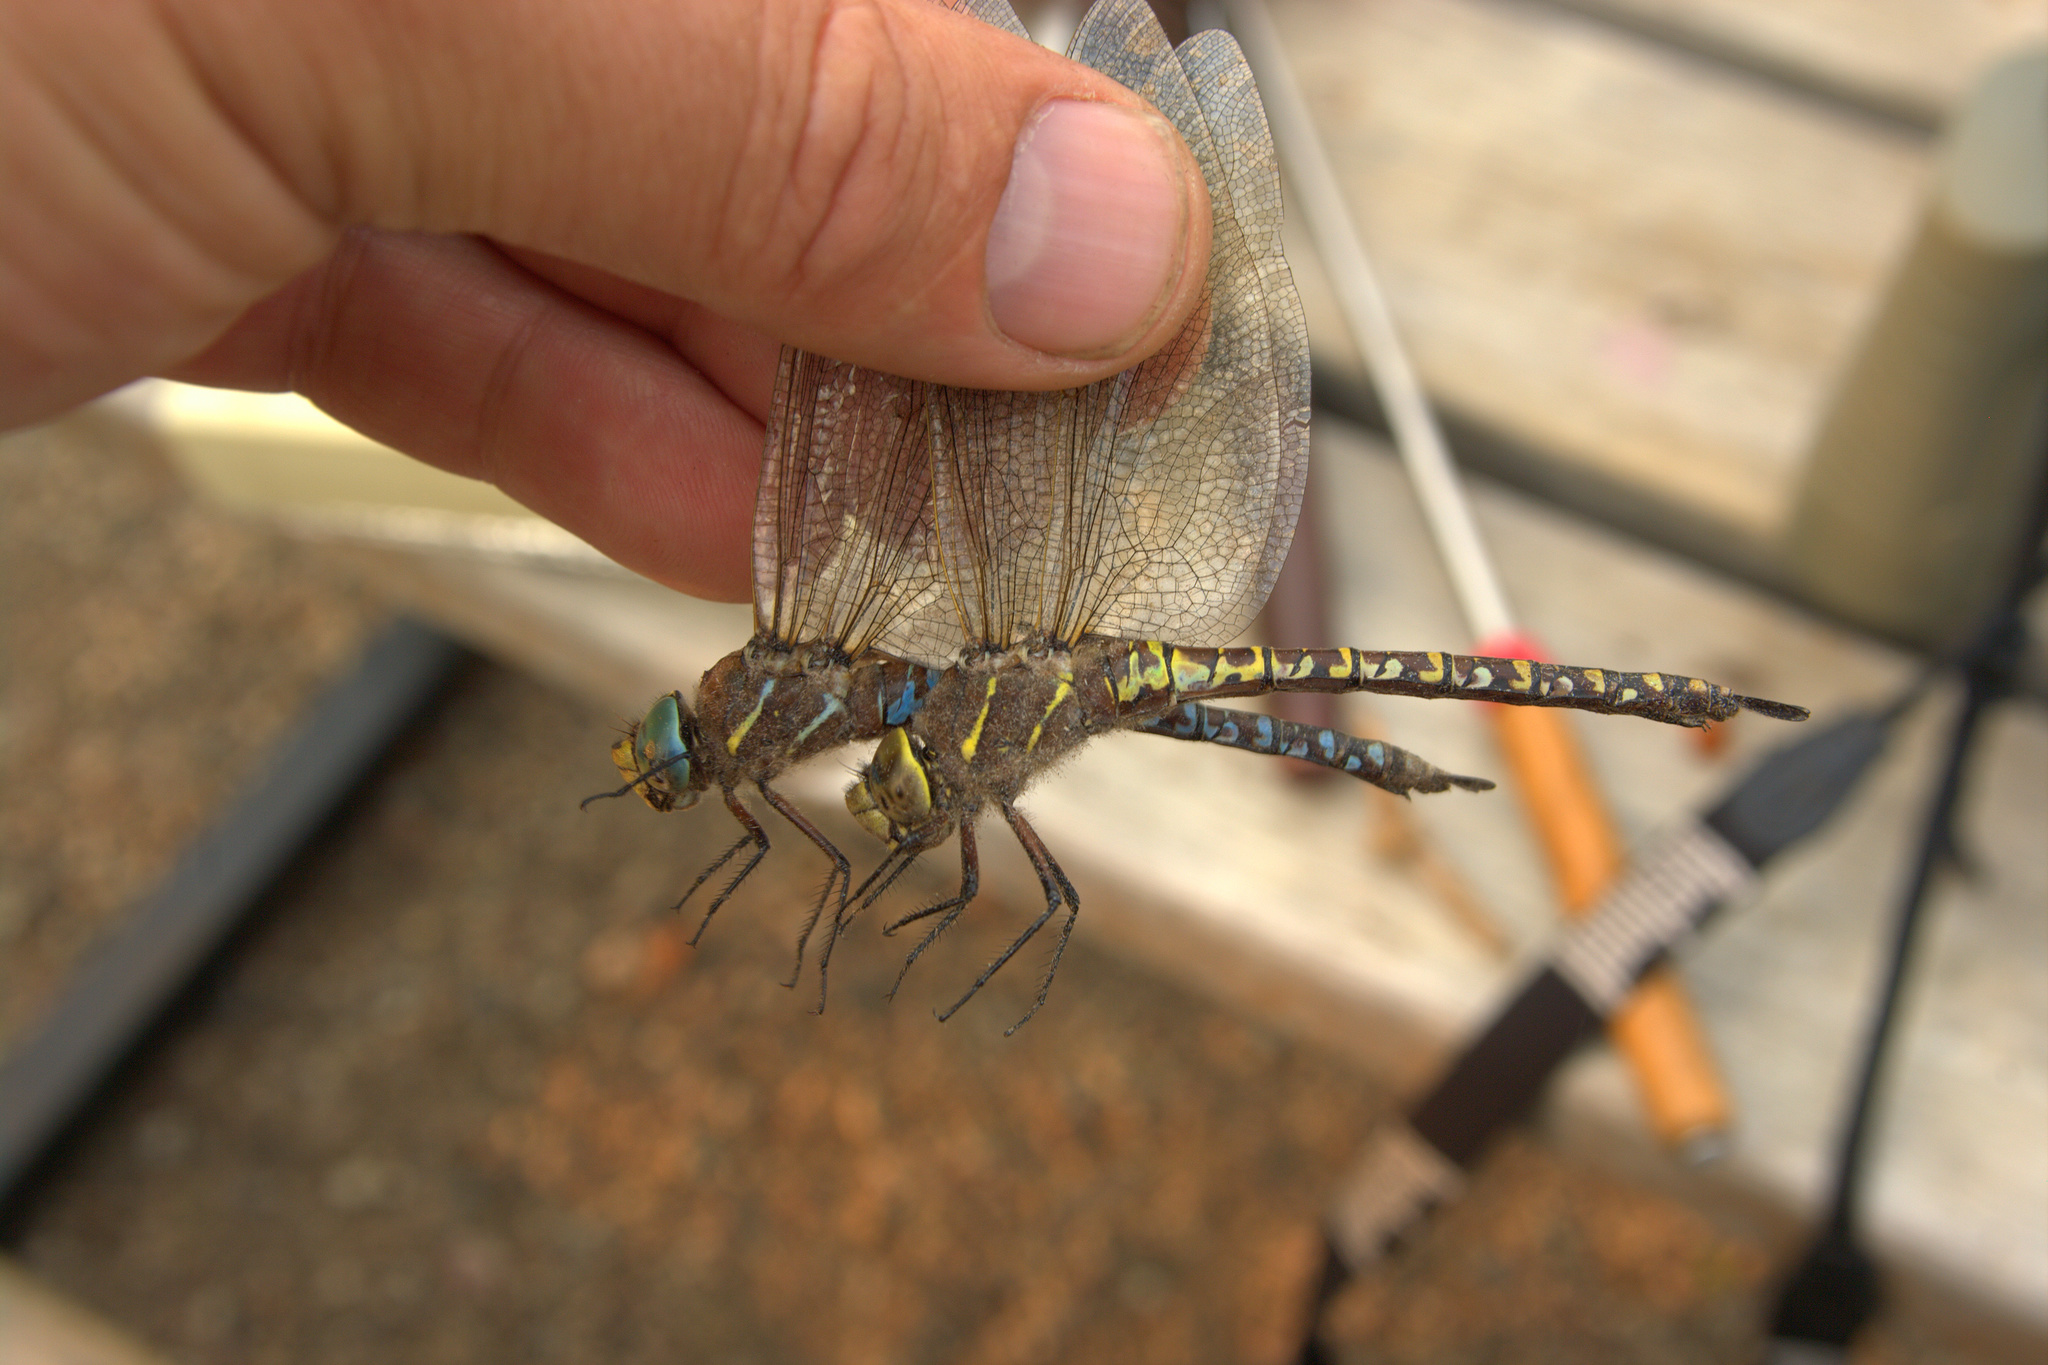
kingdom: Animalia
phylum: Arthropoda
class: Insecta
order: Odonata
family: Aeshnidae
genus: Aeshna
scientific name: Aeshna interrupta
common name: Variable darner
